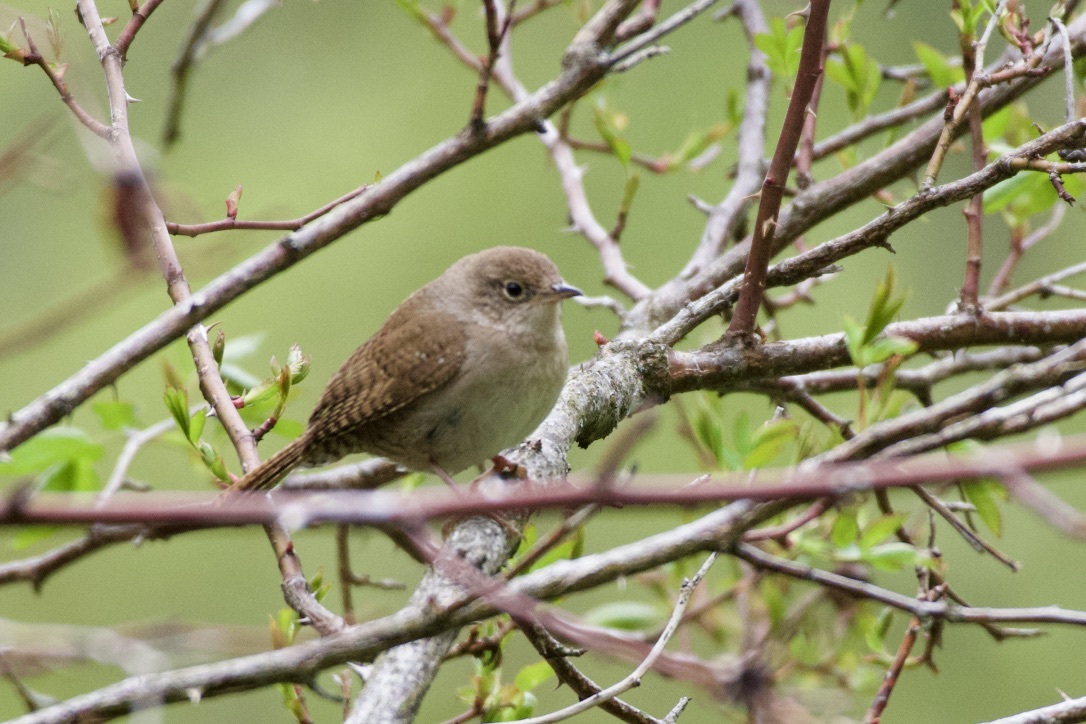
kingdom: Animalia
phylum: Chordata
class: Aves
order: Passeriformes
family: Troglodytidae
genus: Troglodytes
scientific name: Troglodytes aedon
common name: House wren
